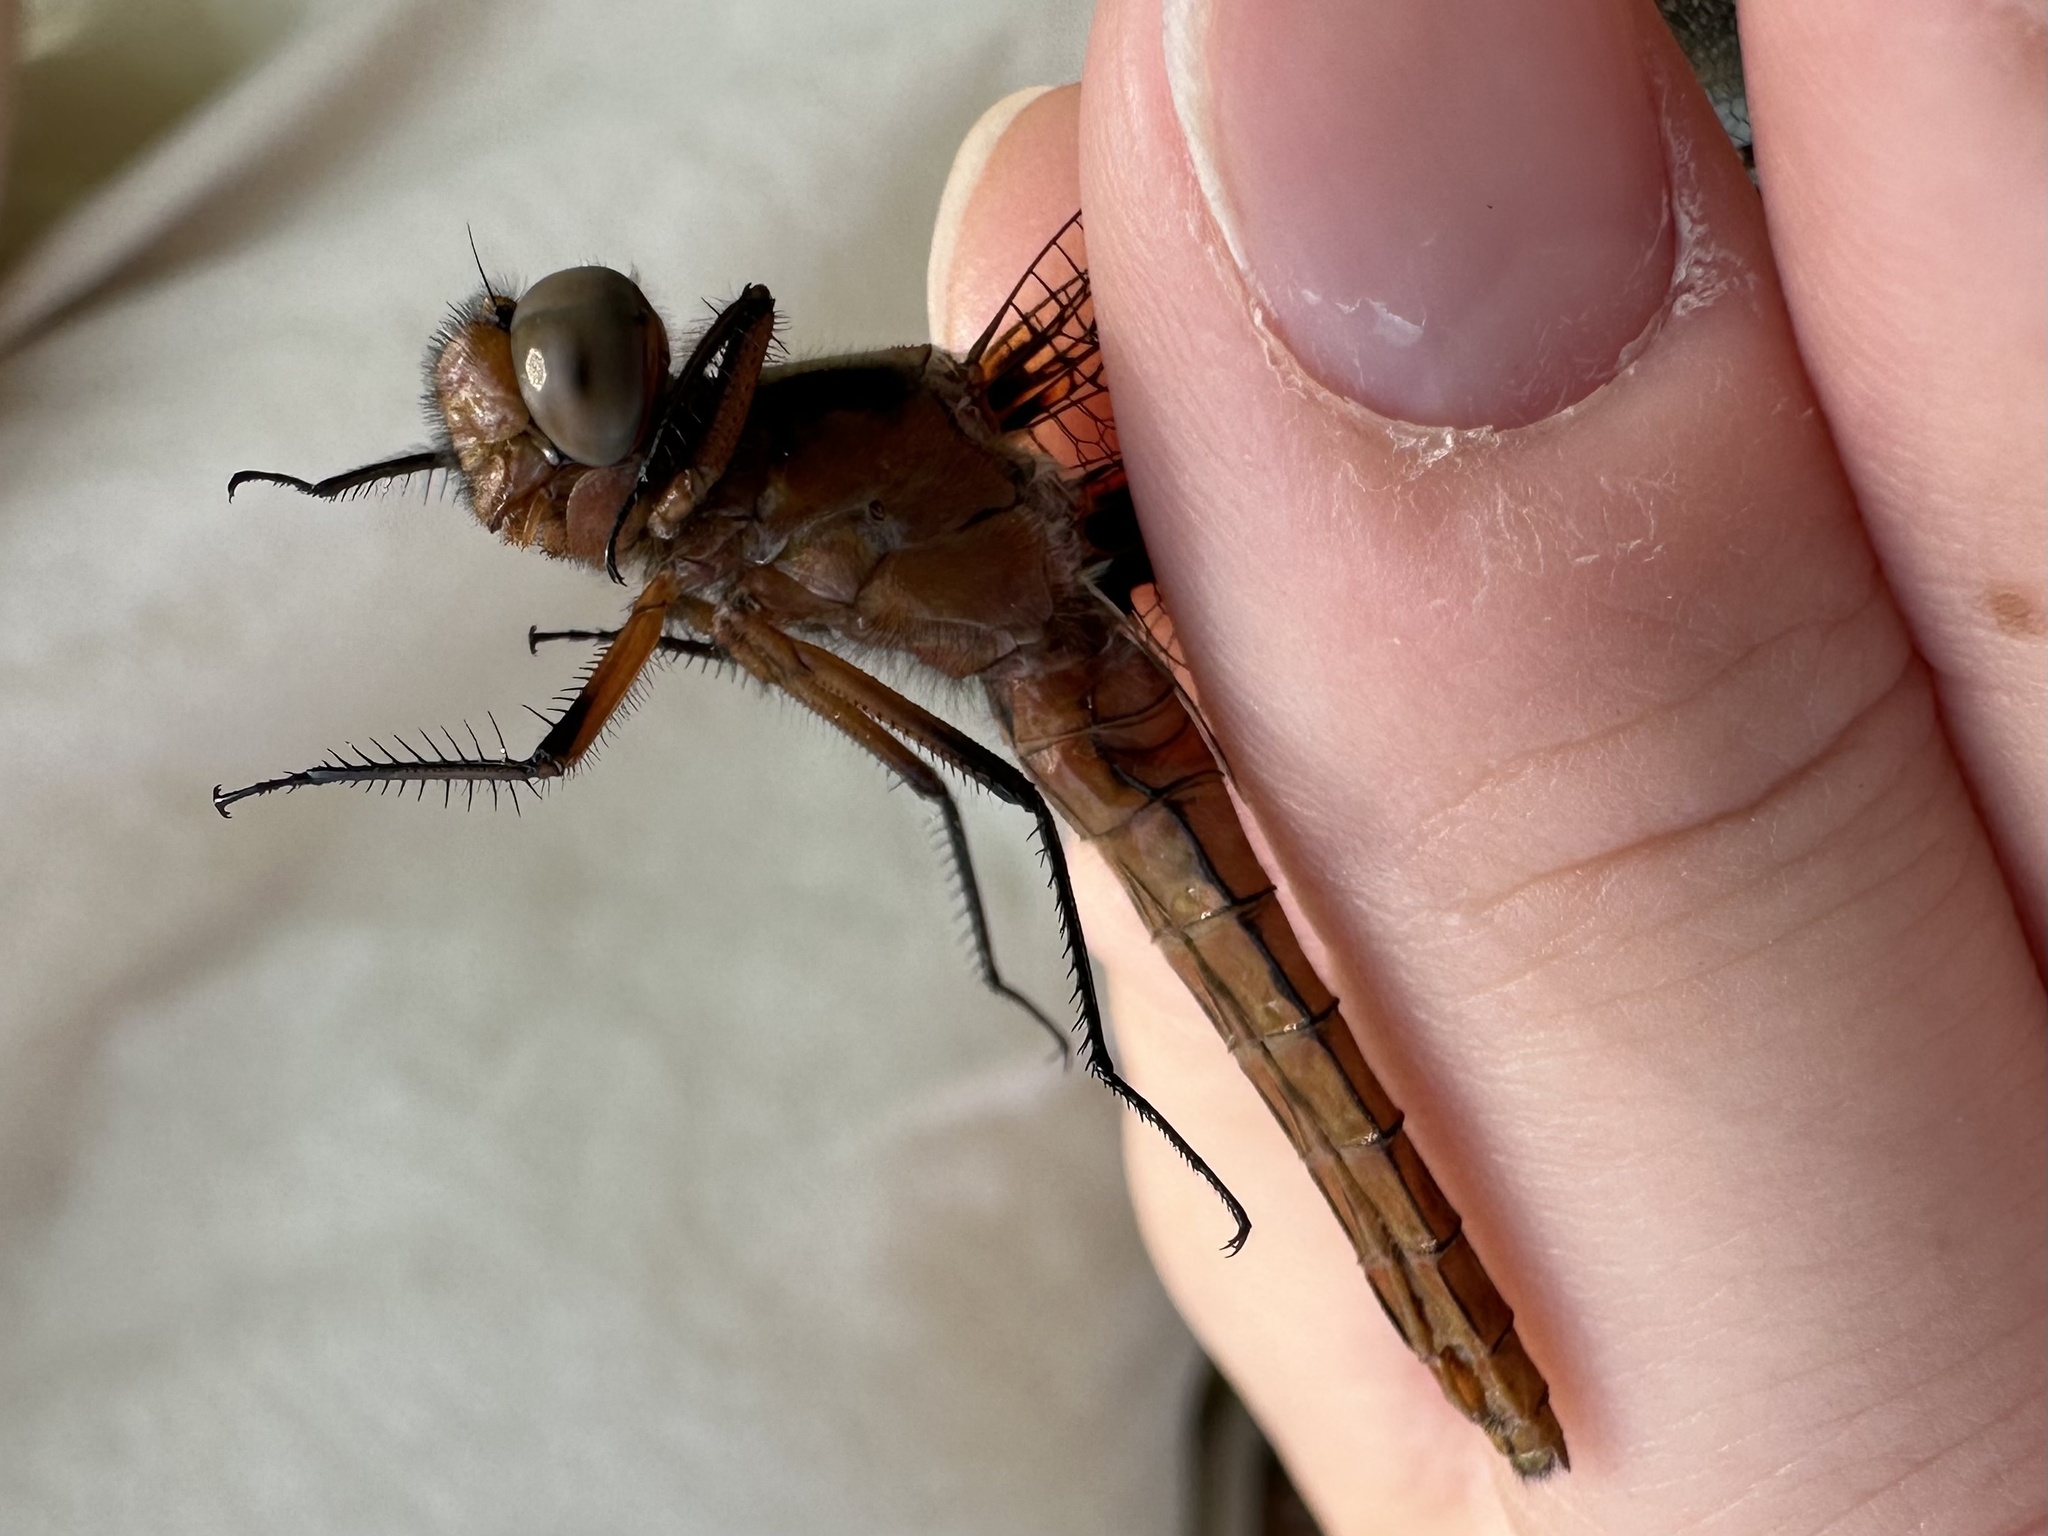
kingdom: Animalia
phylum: Arthropoda
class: Insecta
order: Odonata
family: Libellulidae
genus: Ladona
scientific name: Ladona julia
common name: Chalk-fronted corporal
